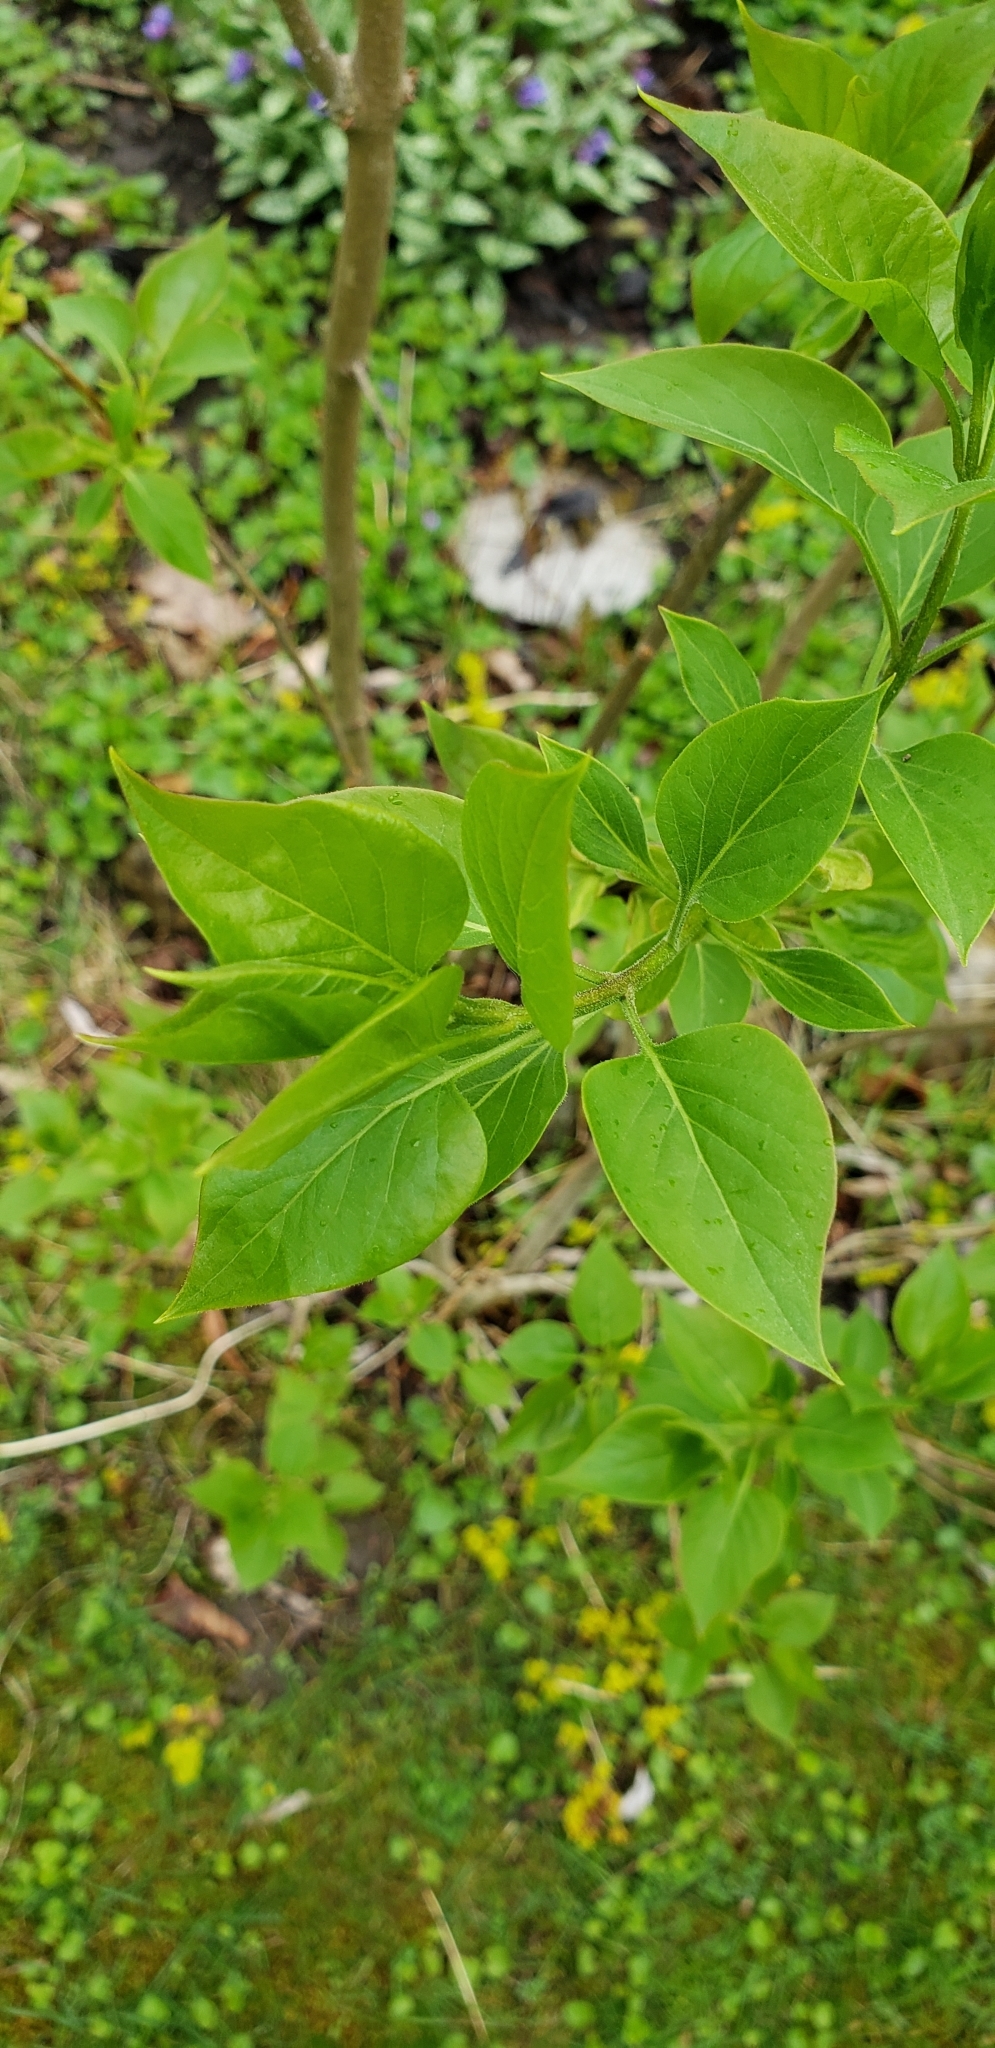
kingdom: Plantae
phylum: Tracheophyta
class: Magnoliopsida
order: Lamiales
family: Oleaceae
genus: Syringa
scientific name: Syringa vulgaris
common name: Common lilac
